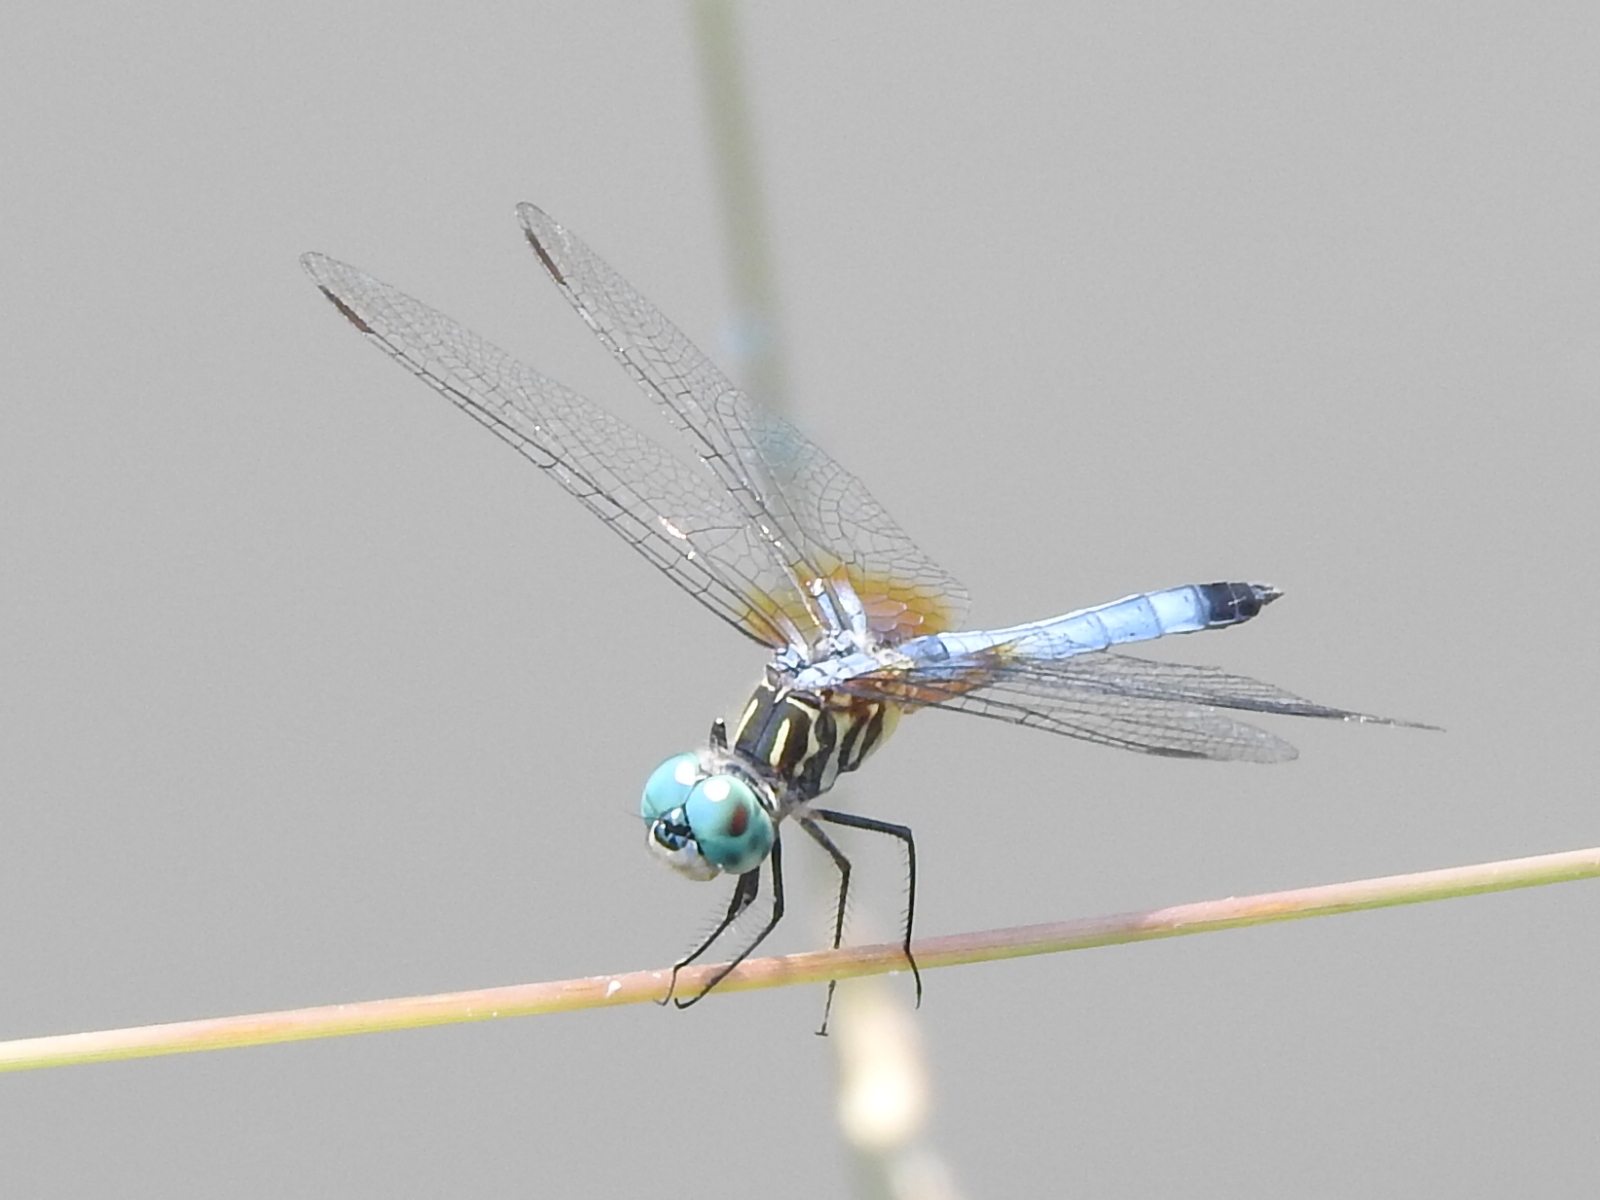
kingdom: Animalia
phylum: Arthropoda
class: Insecta
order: Odonata
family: Libellulidae
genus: Pachydiplax
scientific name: Pachydiplax longipennis
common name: Blue dasher
